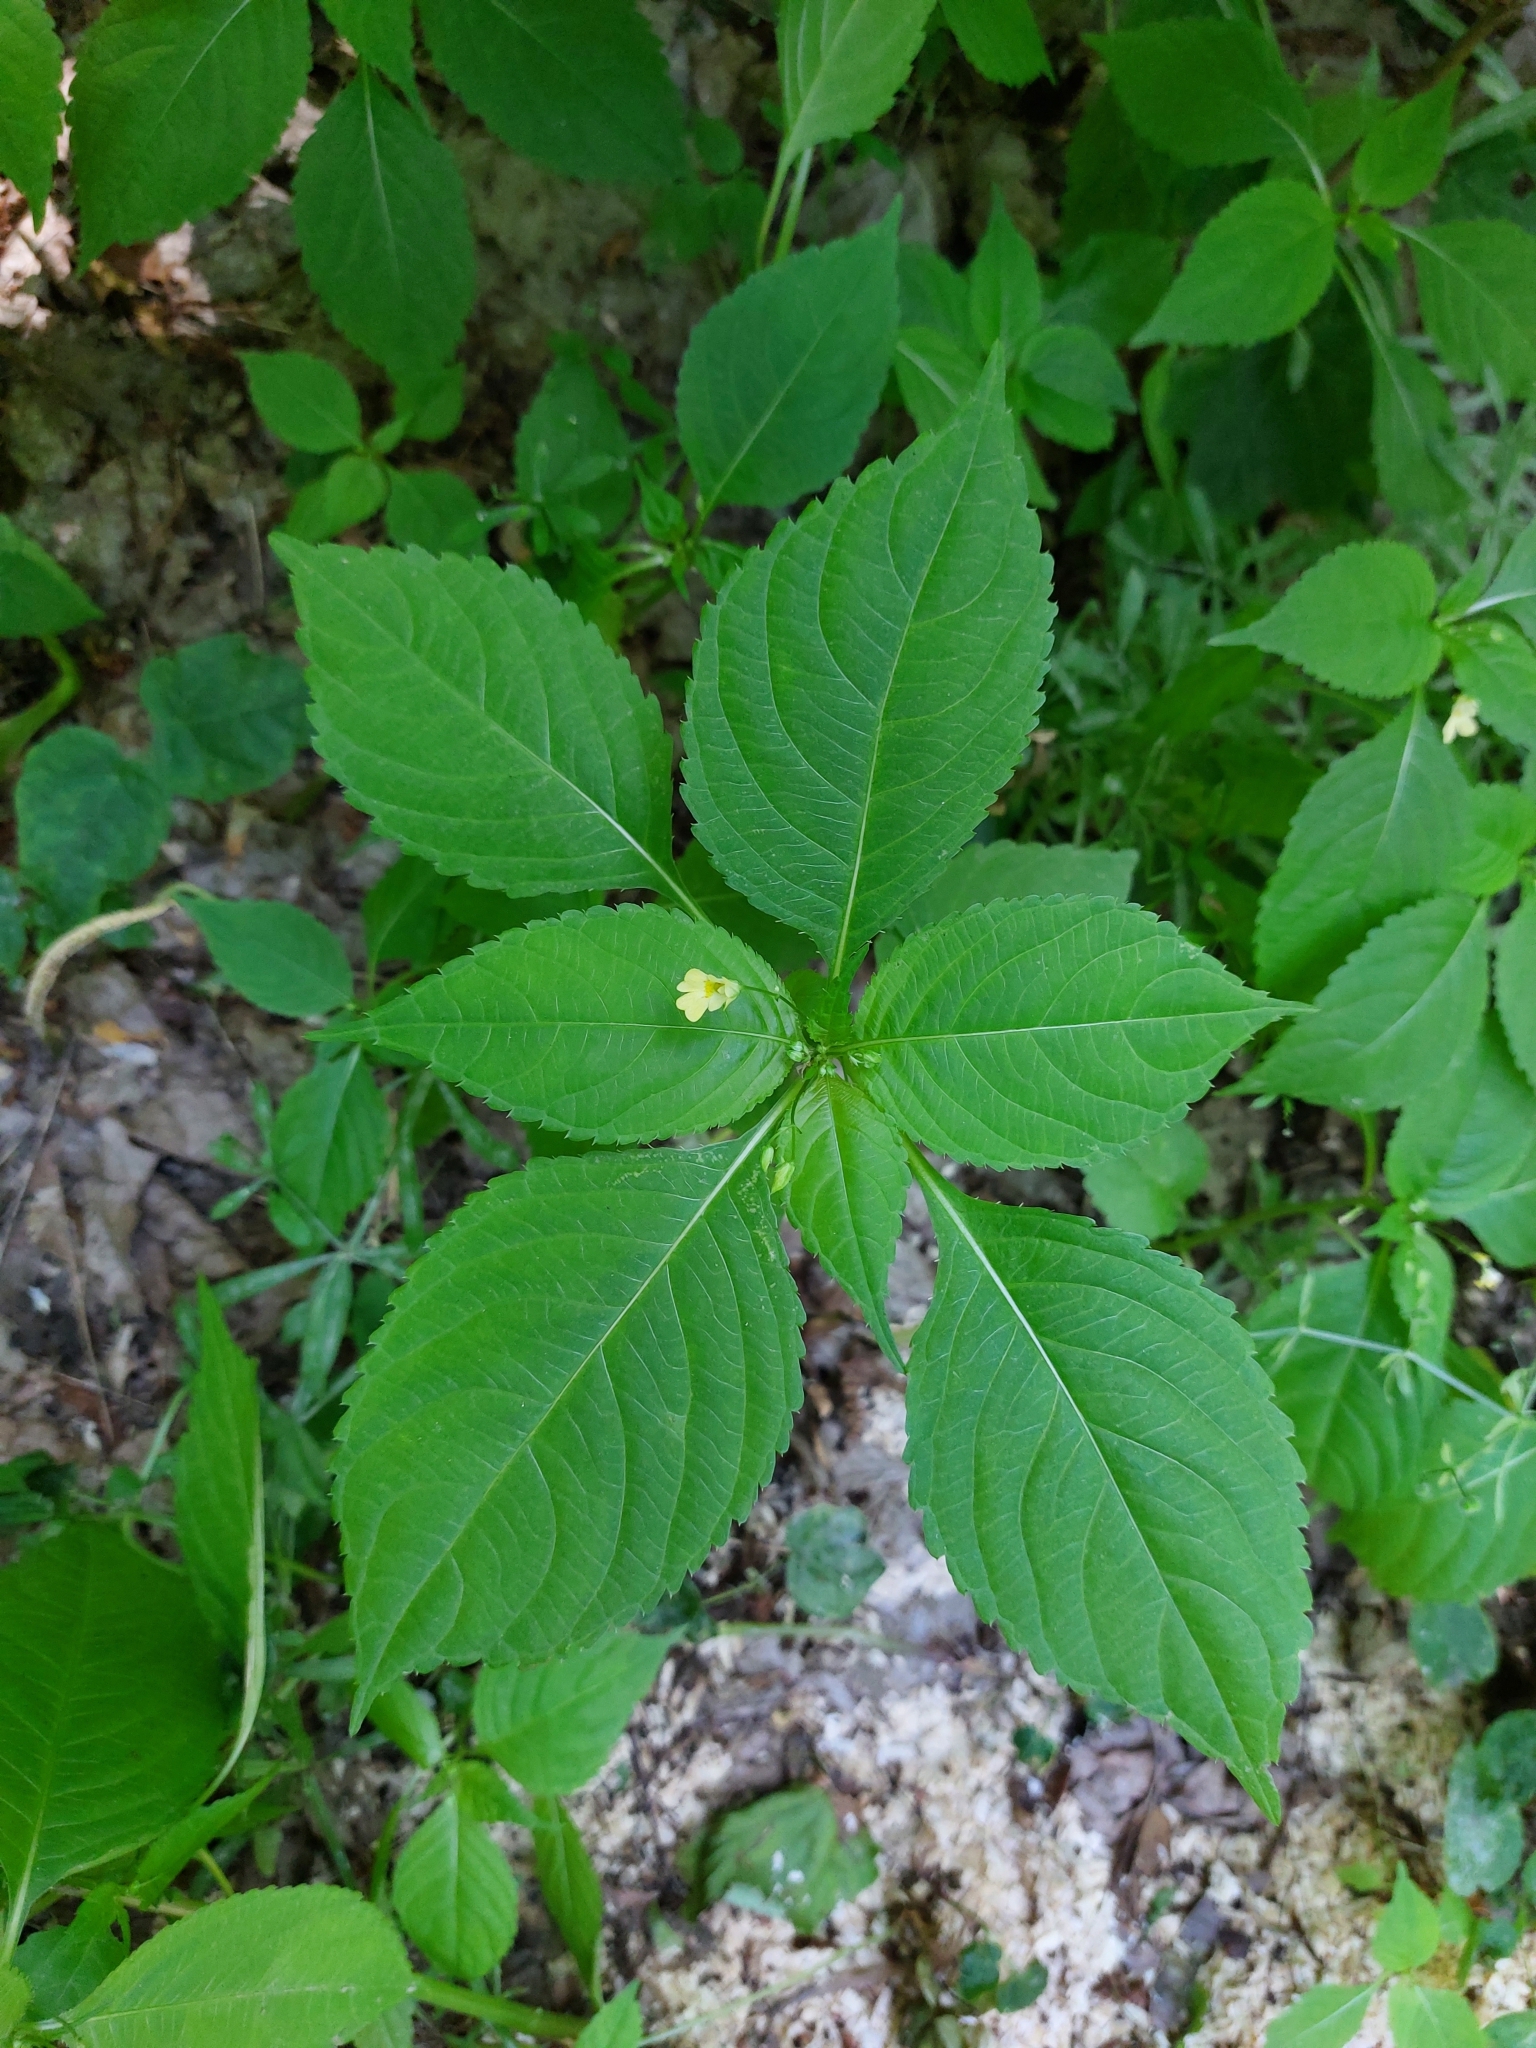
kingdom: Plantae
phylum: Tracheophyta
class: Magnoliopsida
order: Ericales
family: Balsaminaceae
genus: Impatiens
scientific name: Impatiens parviflora
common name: Small balsam
